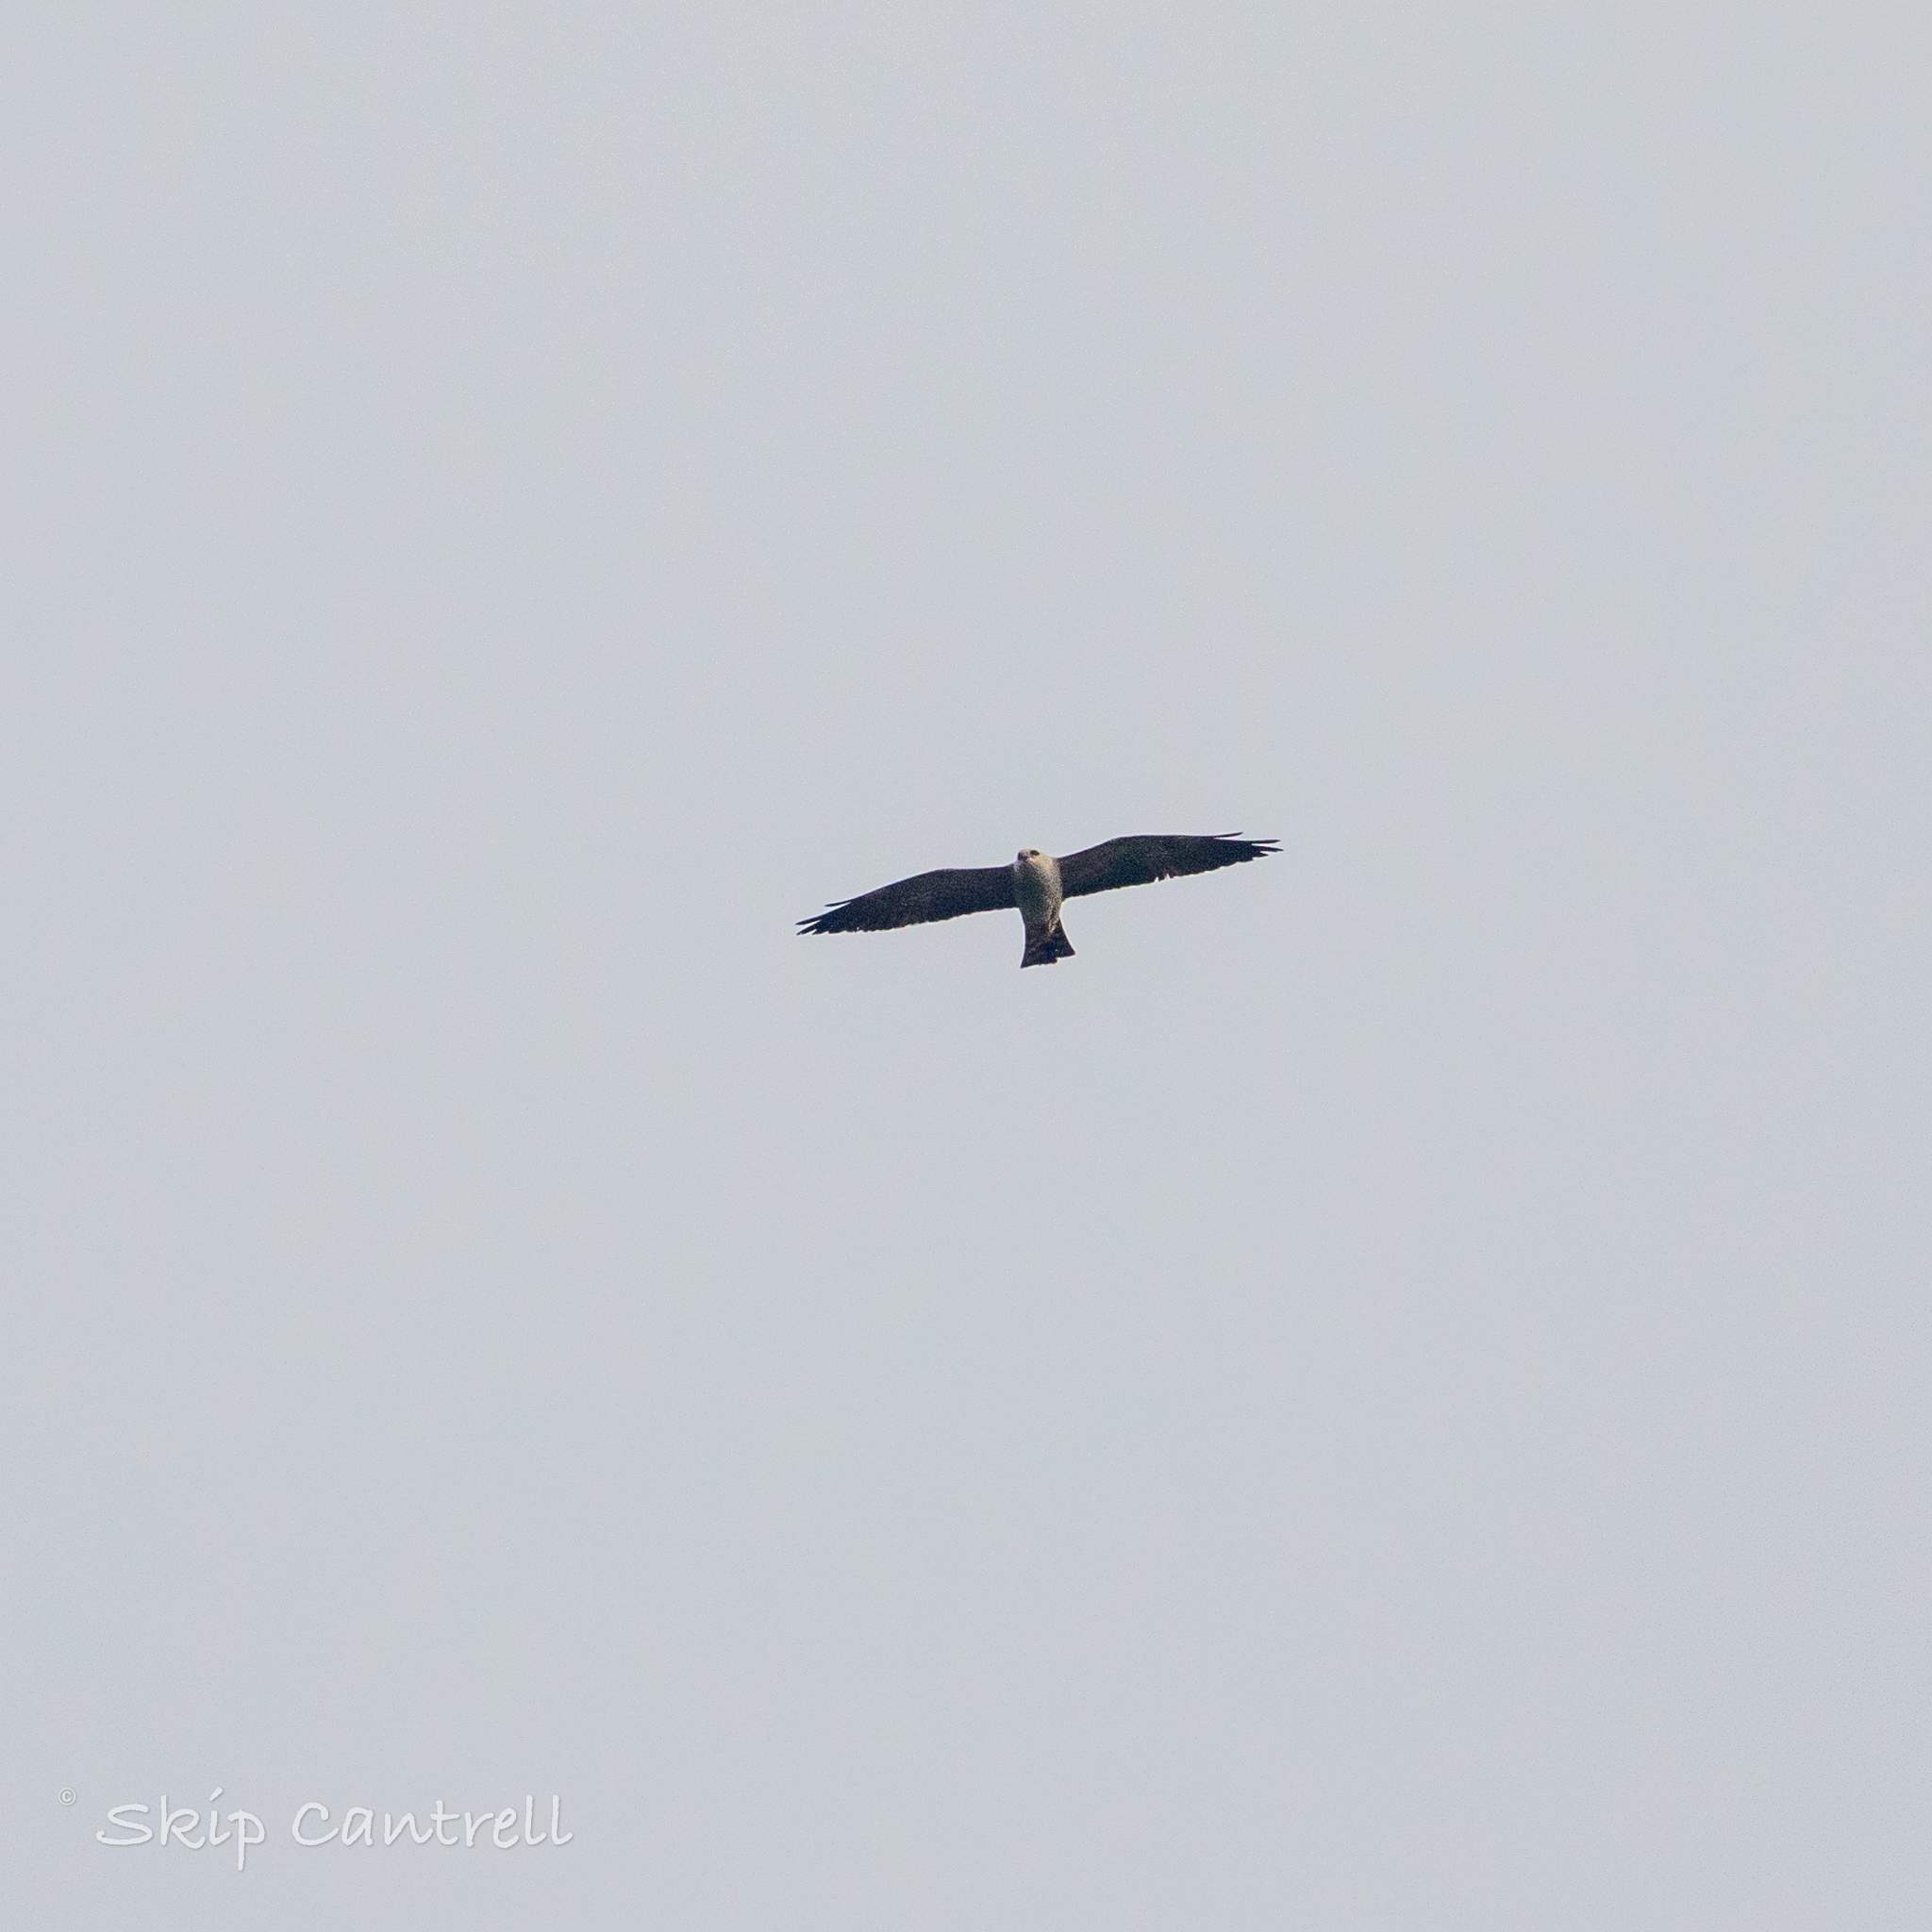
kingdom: Animalia
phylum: Chordata
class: Aves
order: Accipitriformes
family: Accipitridae
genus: Ictinia
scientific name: Ictinia mississippiensis
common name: Mississippi kite
